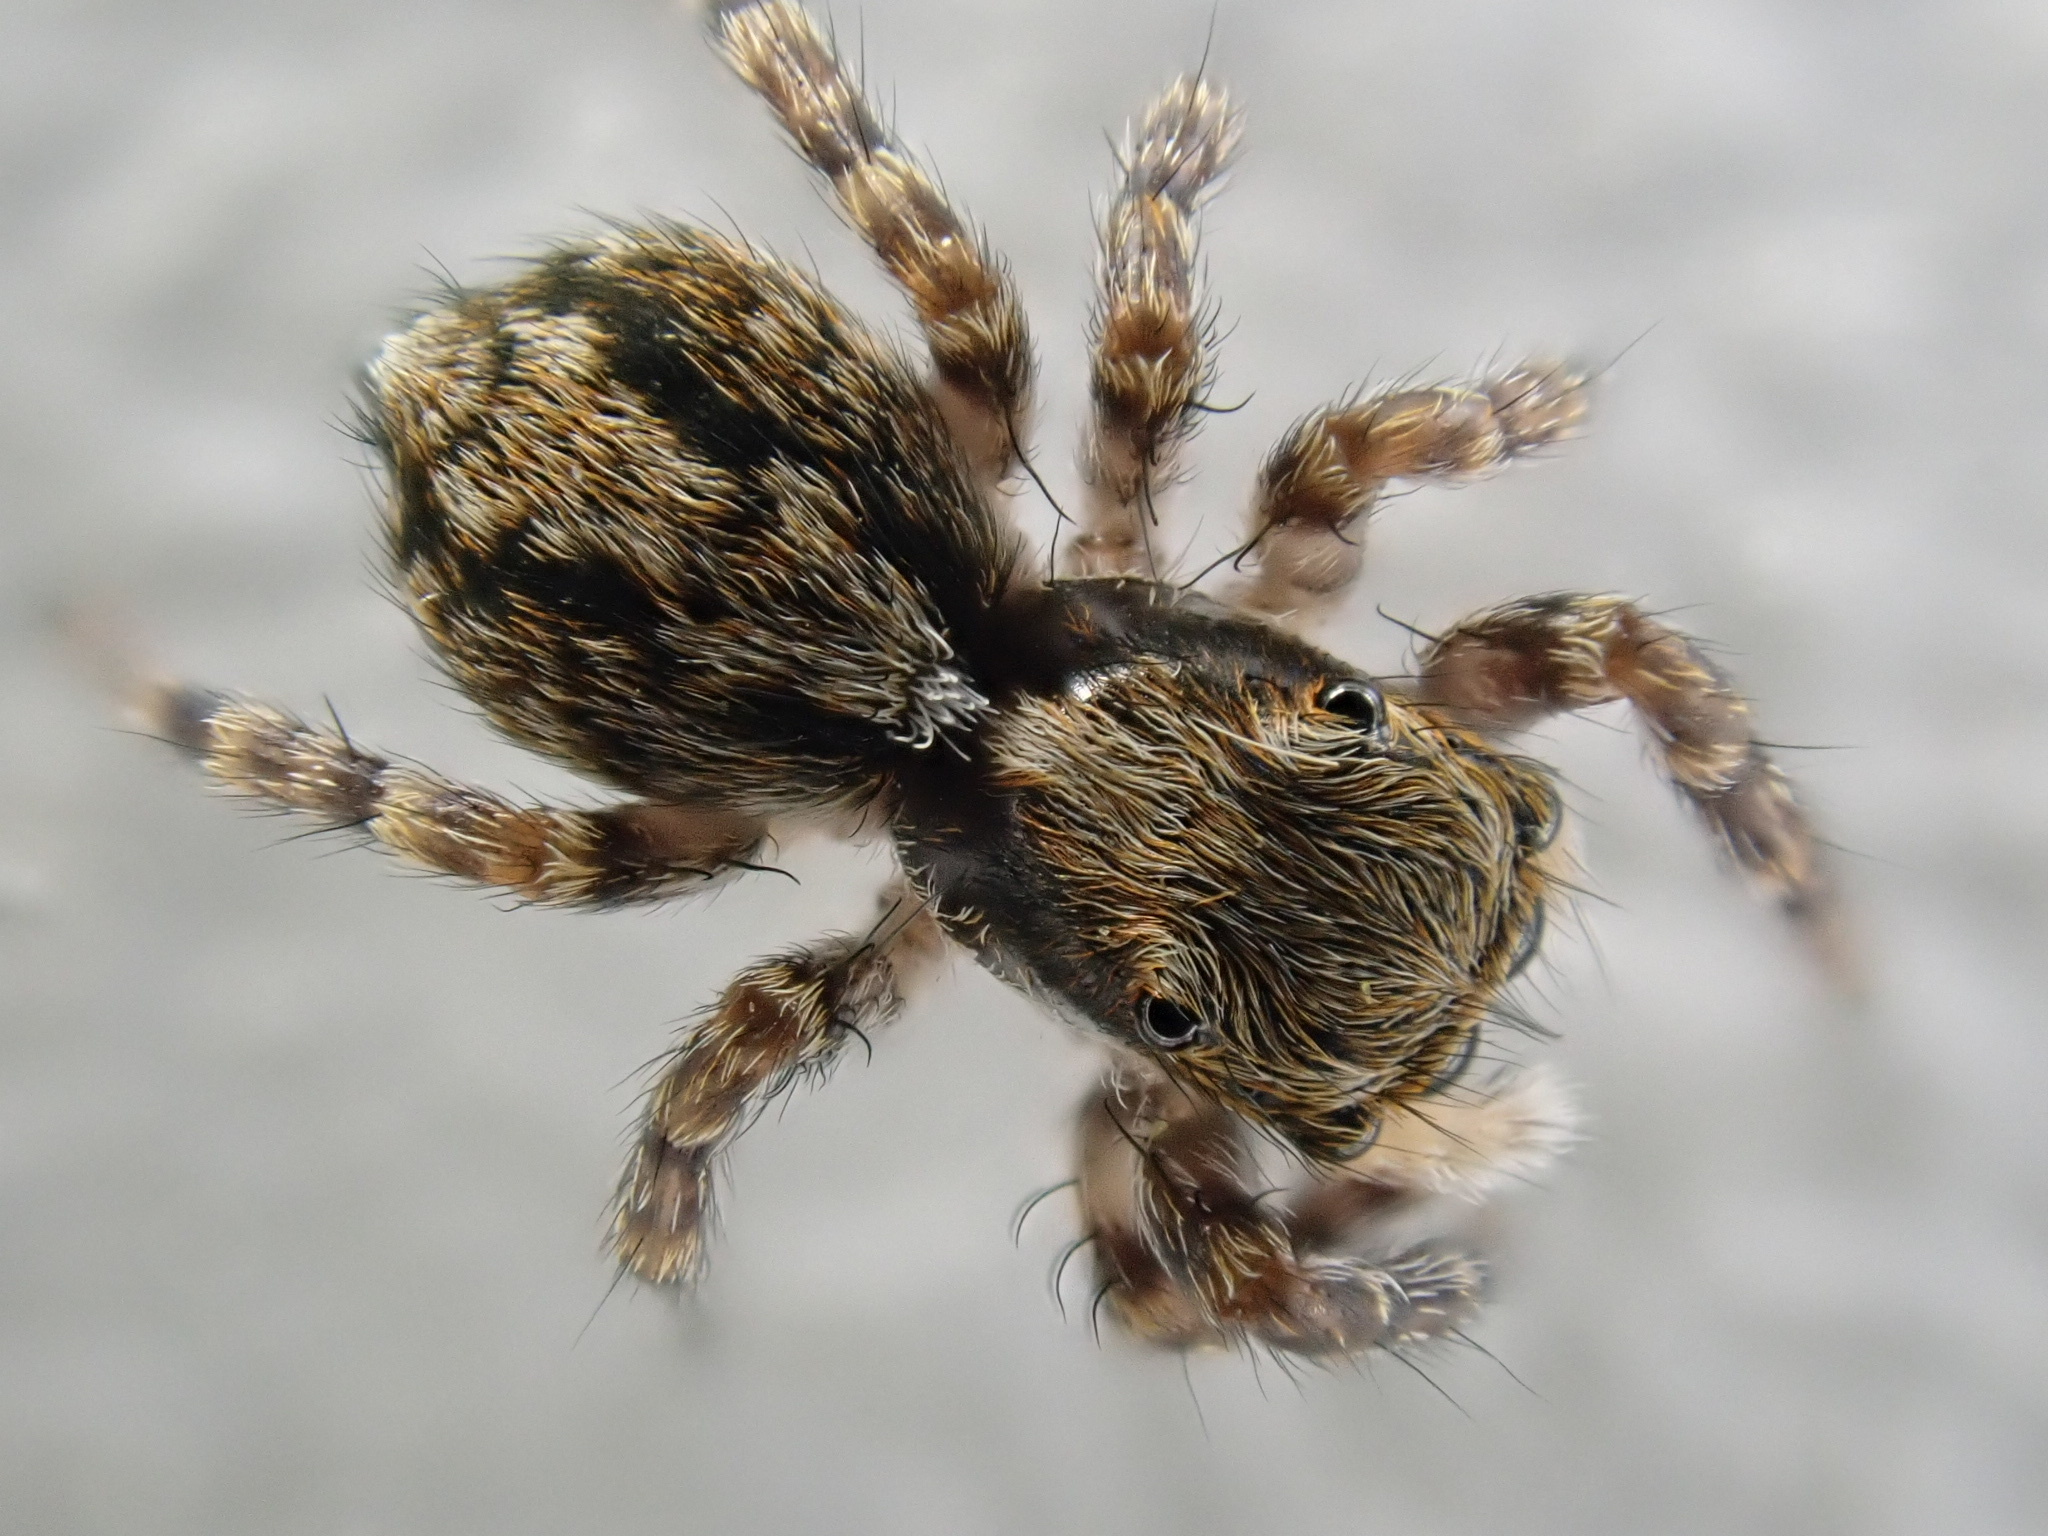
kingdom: Animalia
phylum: Arthropoda
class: Arachnida
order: Araneae
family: Salticidae
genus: Pseudeuophrys
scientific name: Pseudeuophrys lanigera
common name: Jumping spider
